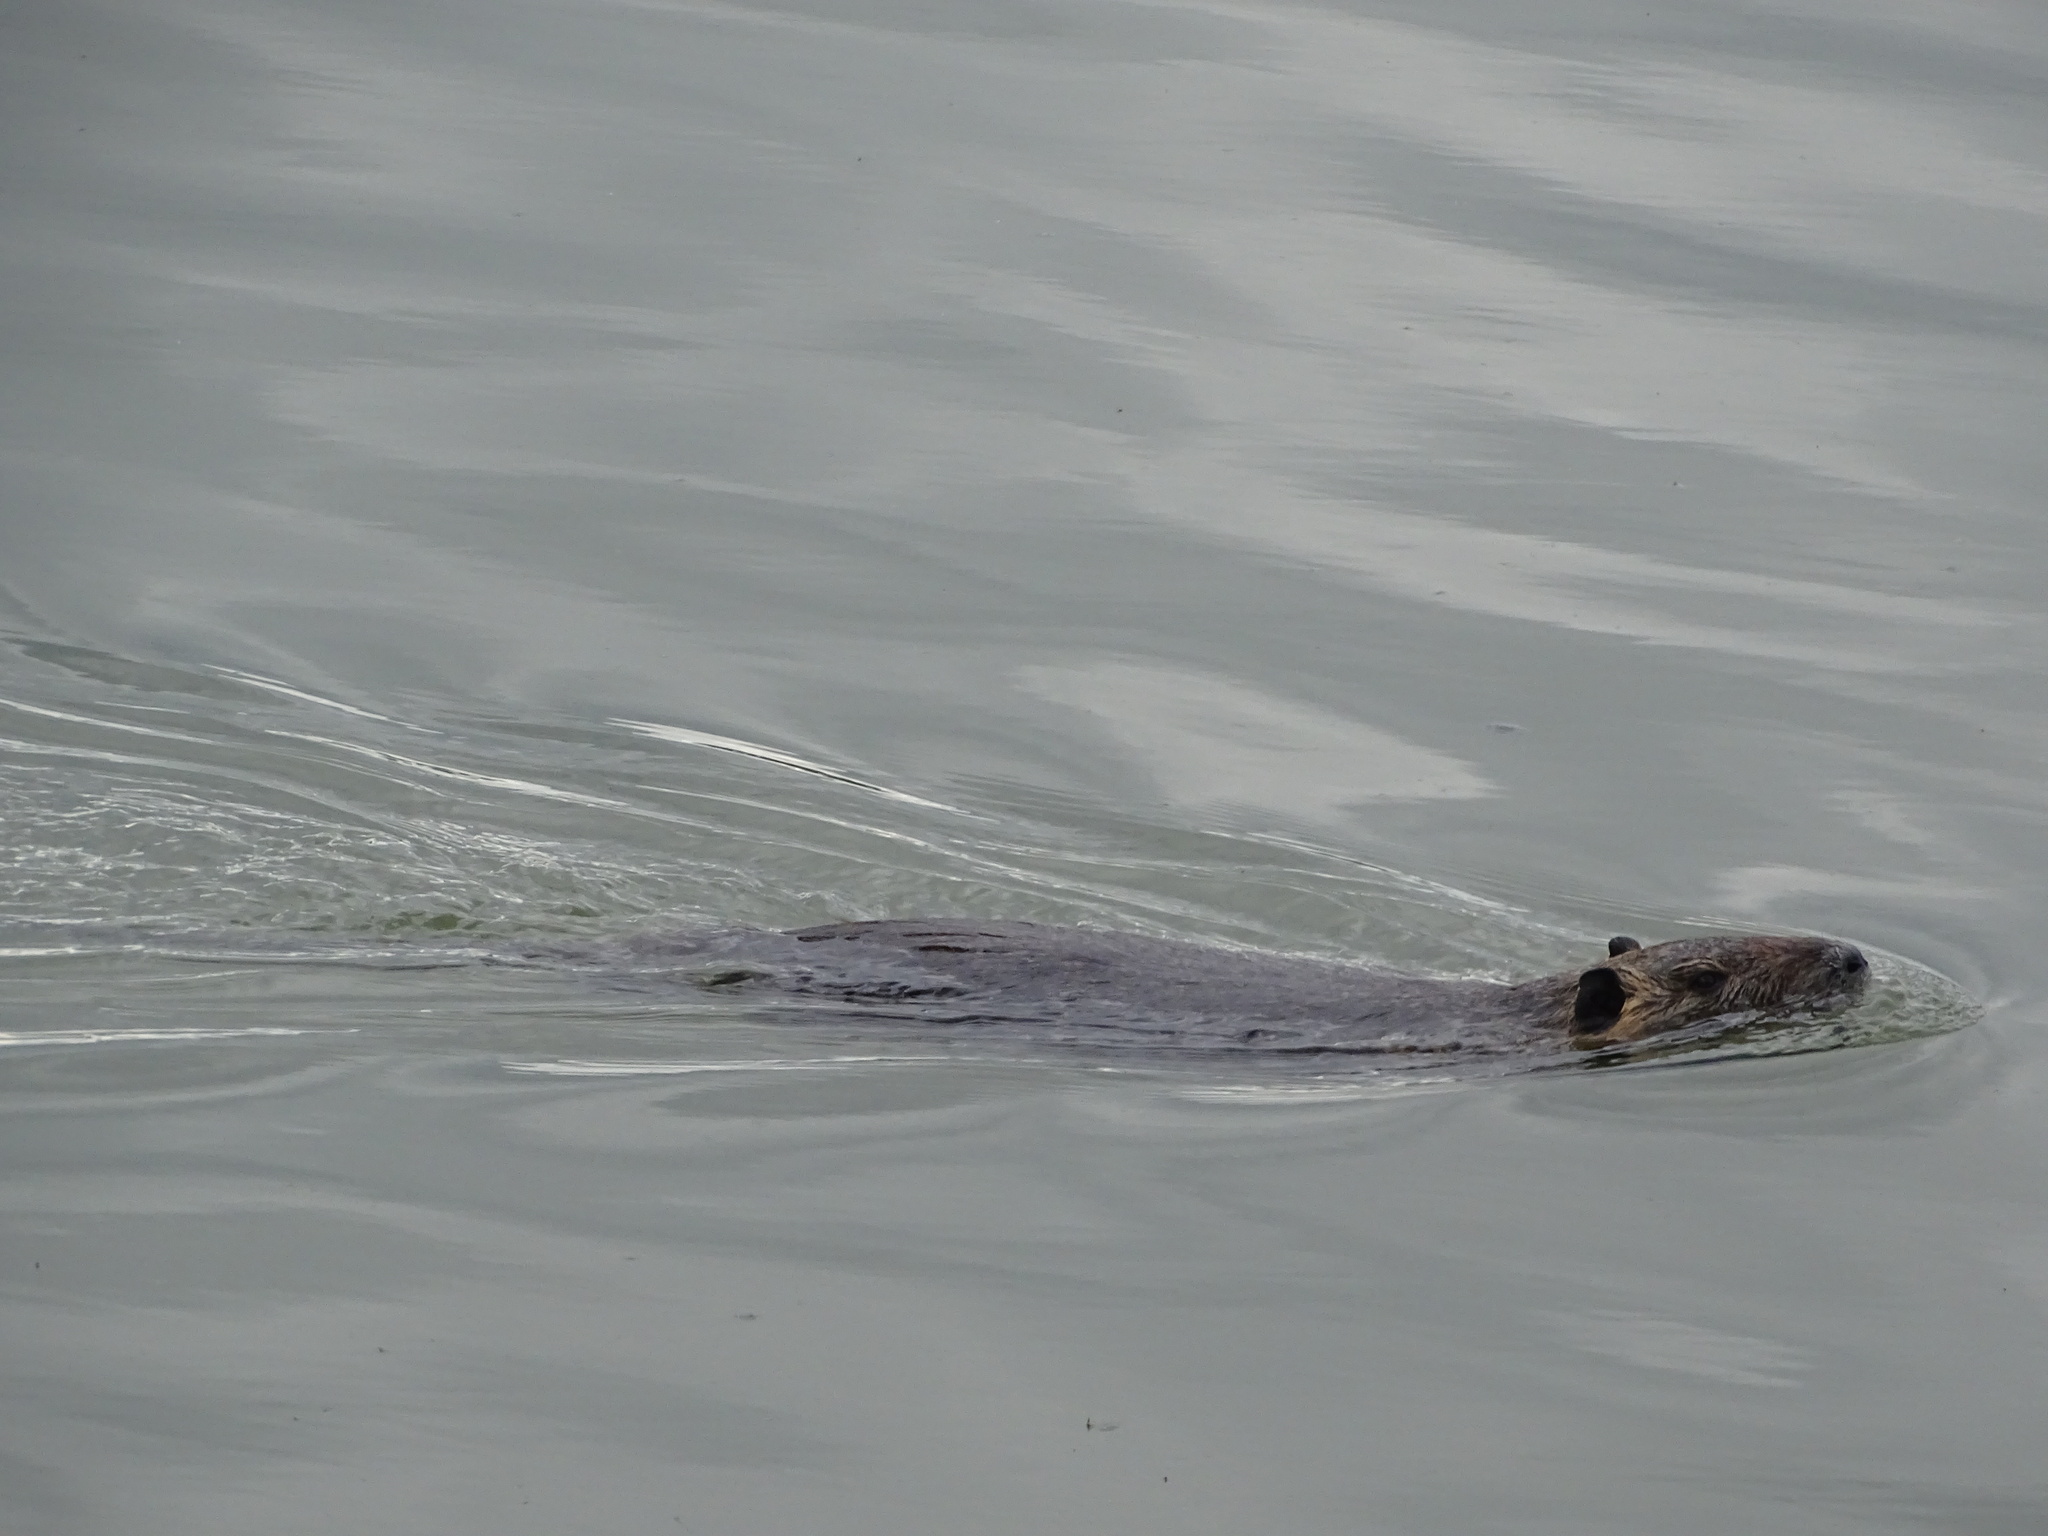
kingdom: Animalia
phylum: Chordata
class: Mammalia
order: Rodentia
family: Myocastoridae
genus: Myocastor
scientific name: Myocastor coypus
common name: Coypu
